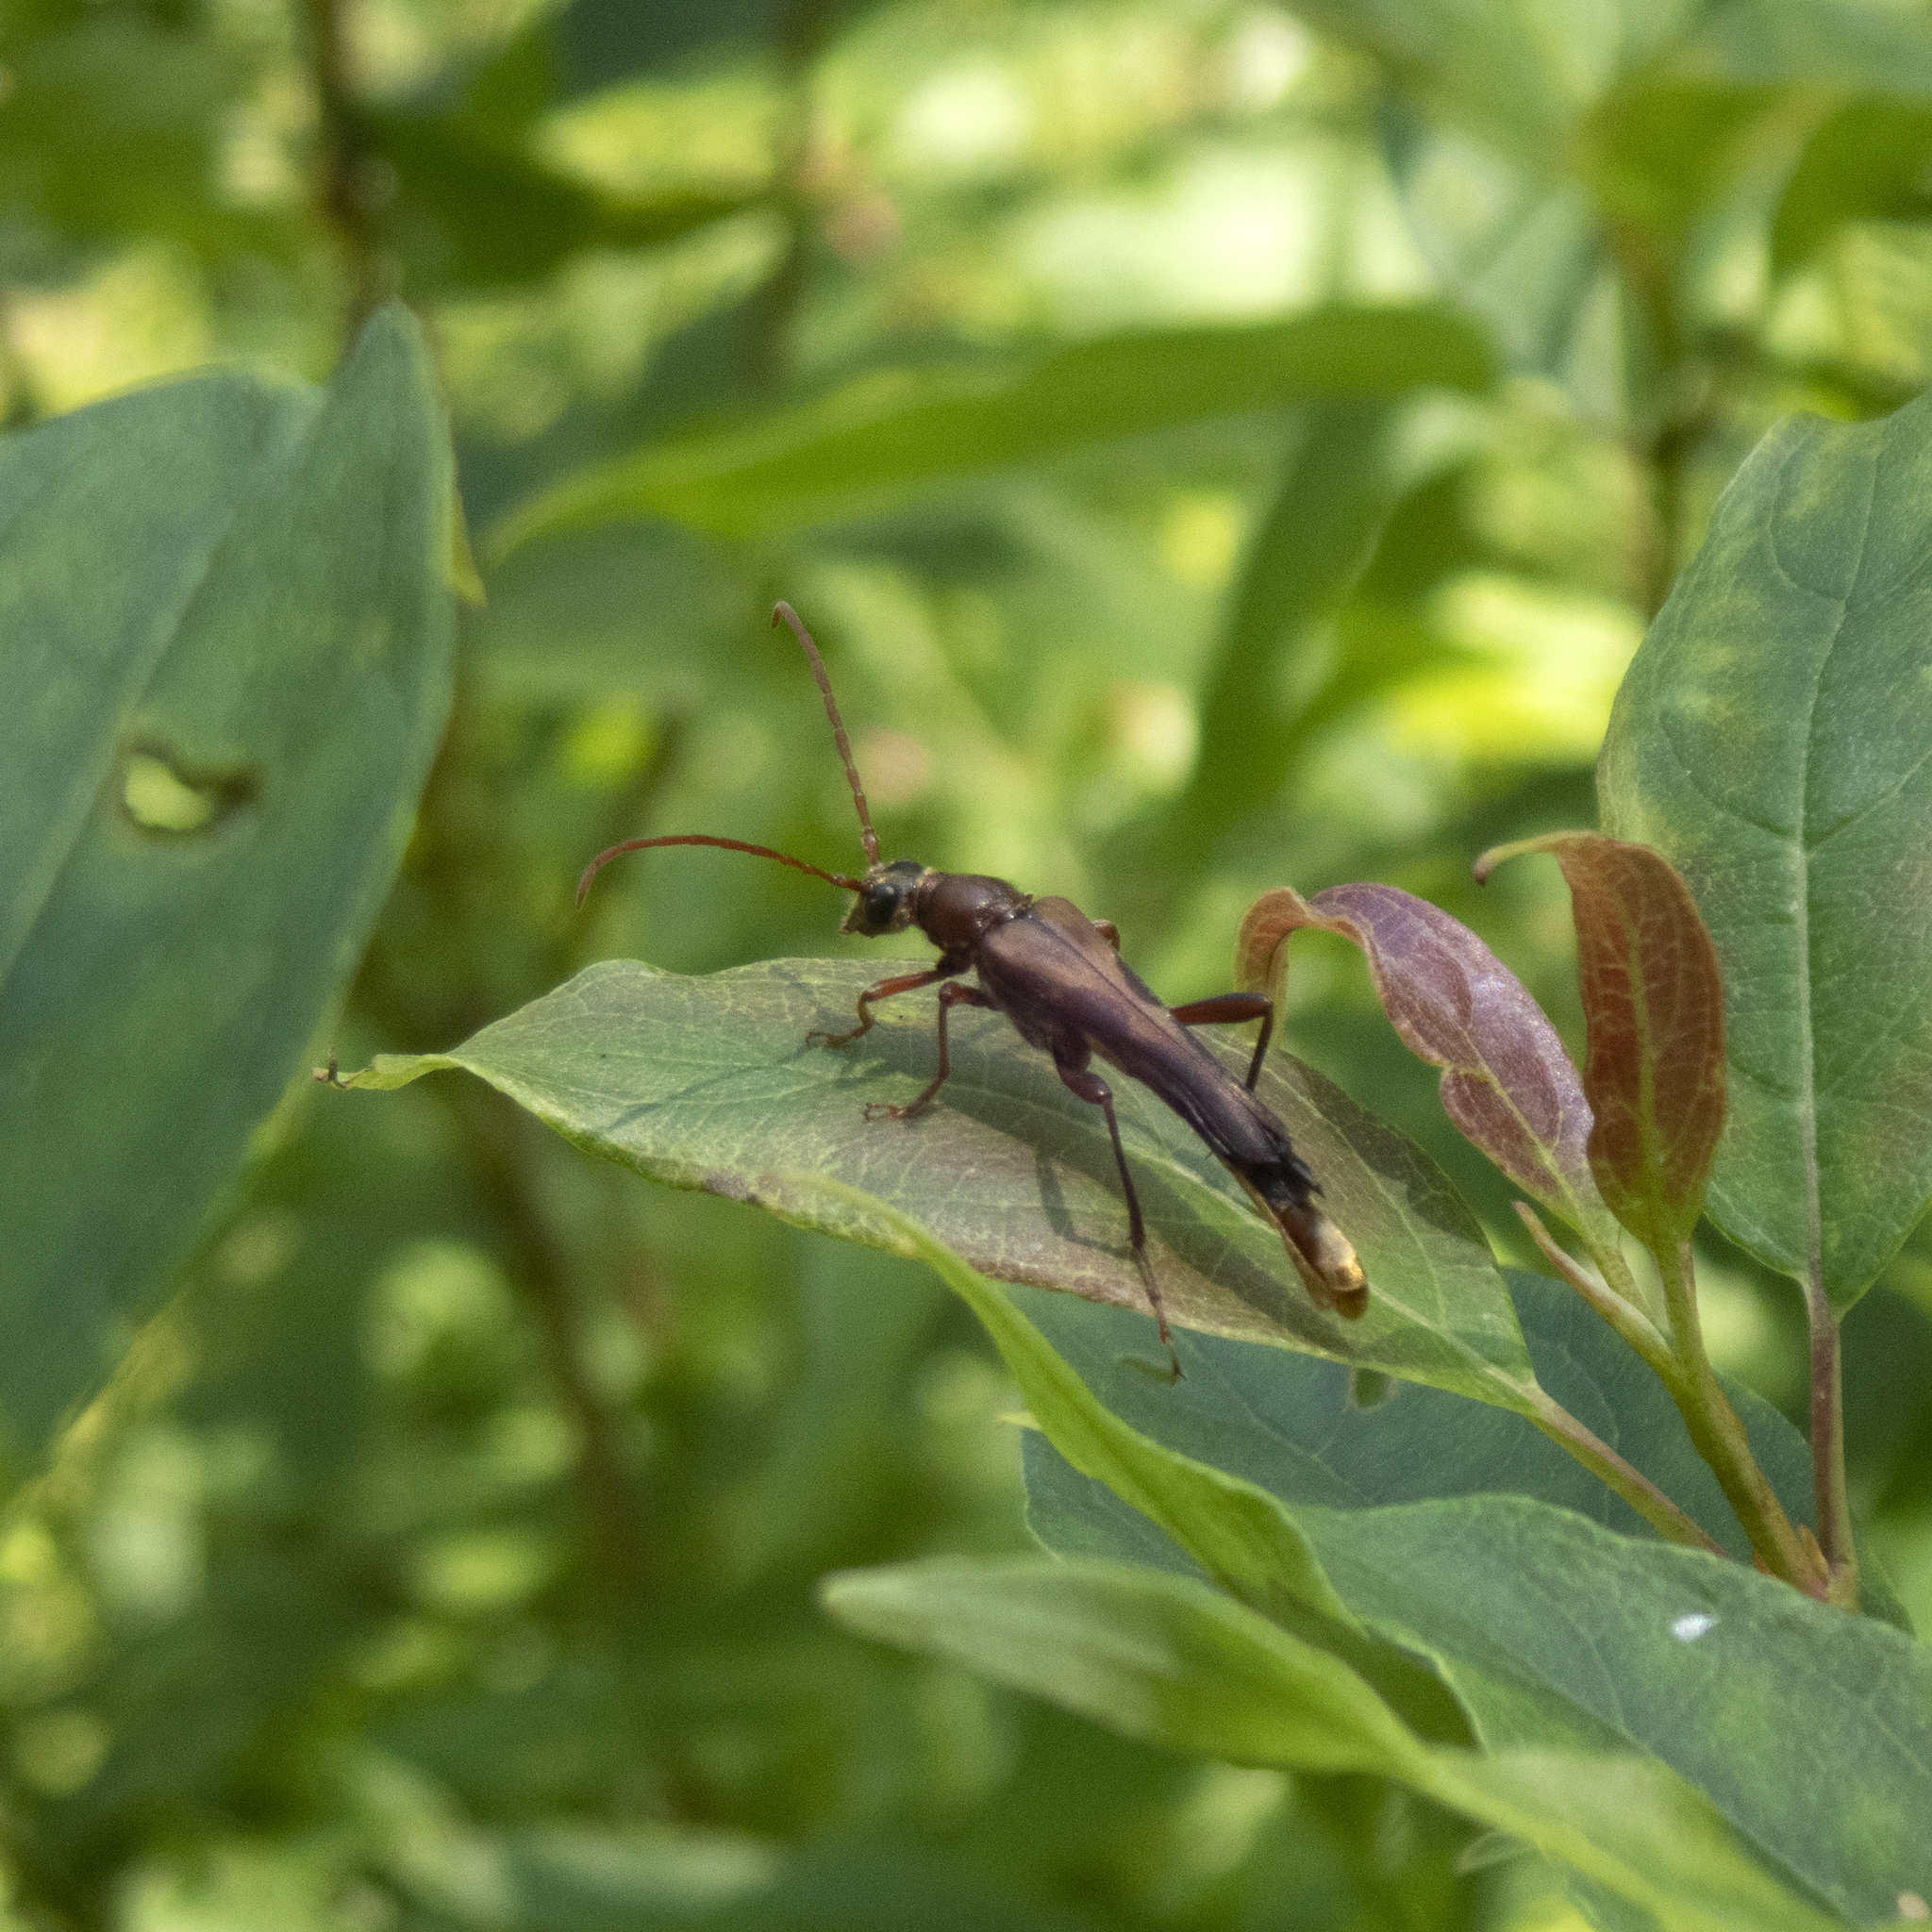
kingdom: Animalia
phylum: Arthropoda
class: Insecta
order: Coleoptera
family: Cerambycidae
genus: Bellamira
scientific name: Bellamira scalaris
